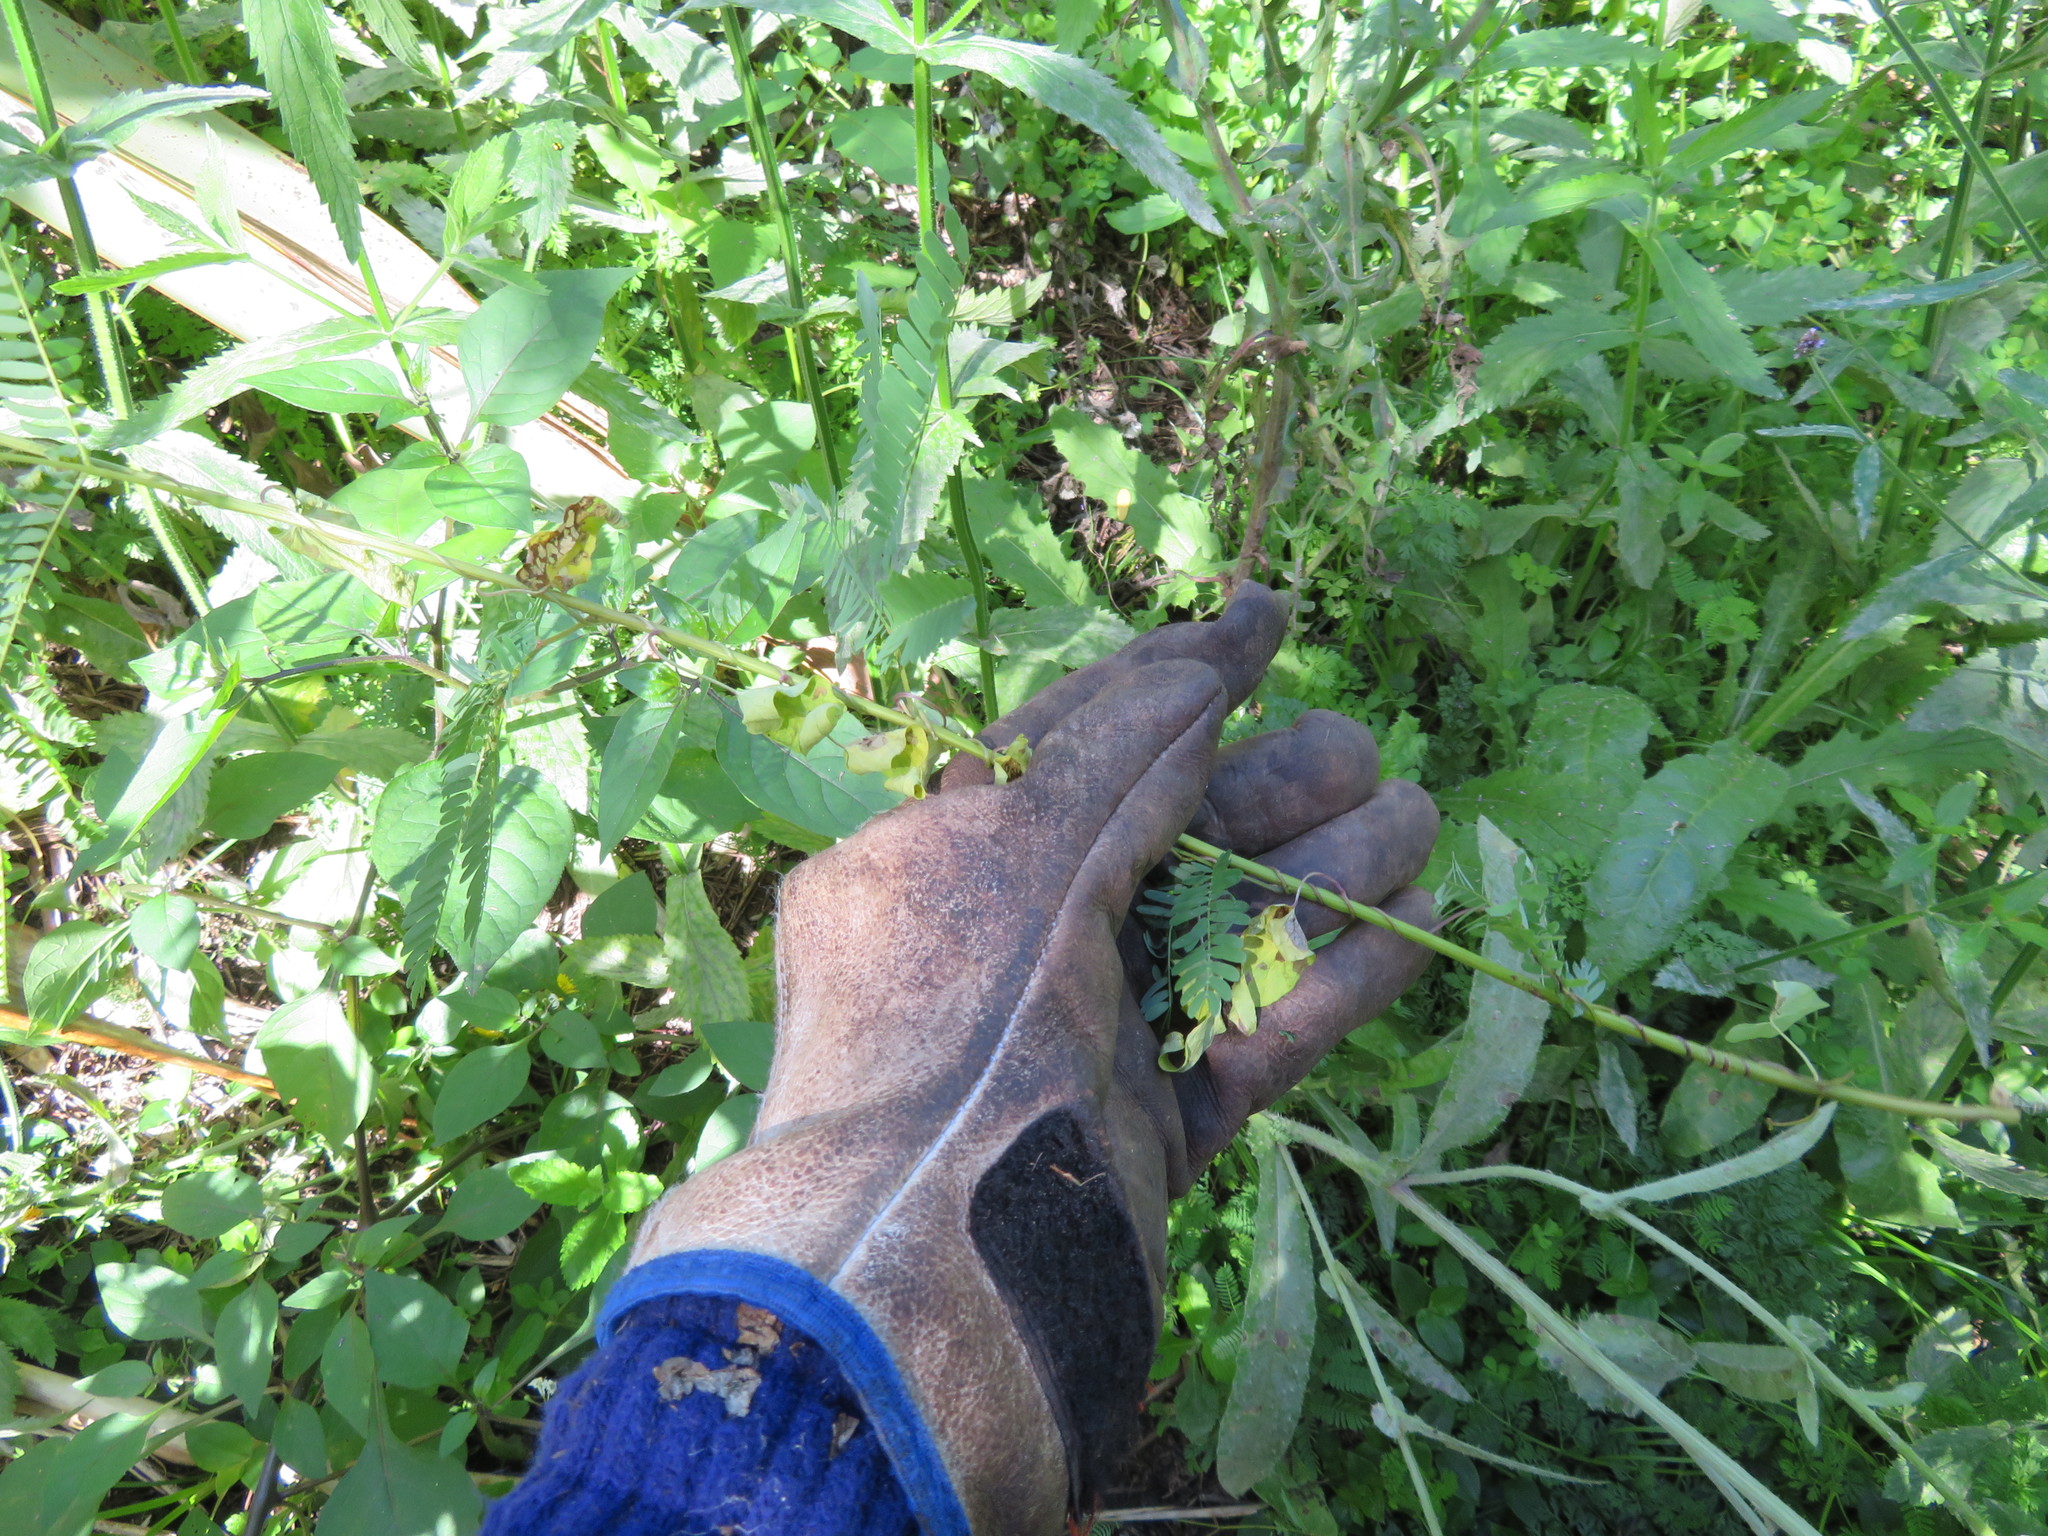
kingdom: Plantae
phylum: Tracheophyta
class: Magnoliopsida
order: Fabales
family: Fabaceae
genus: Paraserianthes
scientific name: Paraserianthes lophantha
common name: Plume albizia
